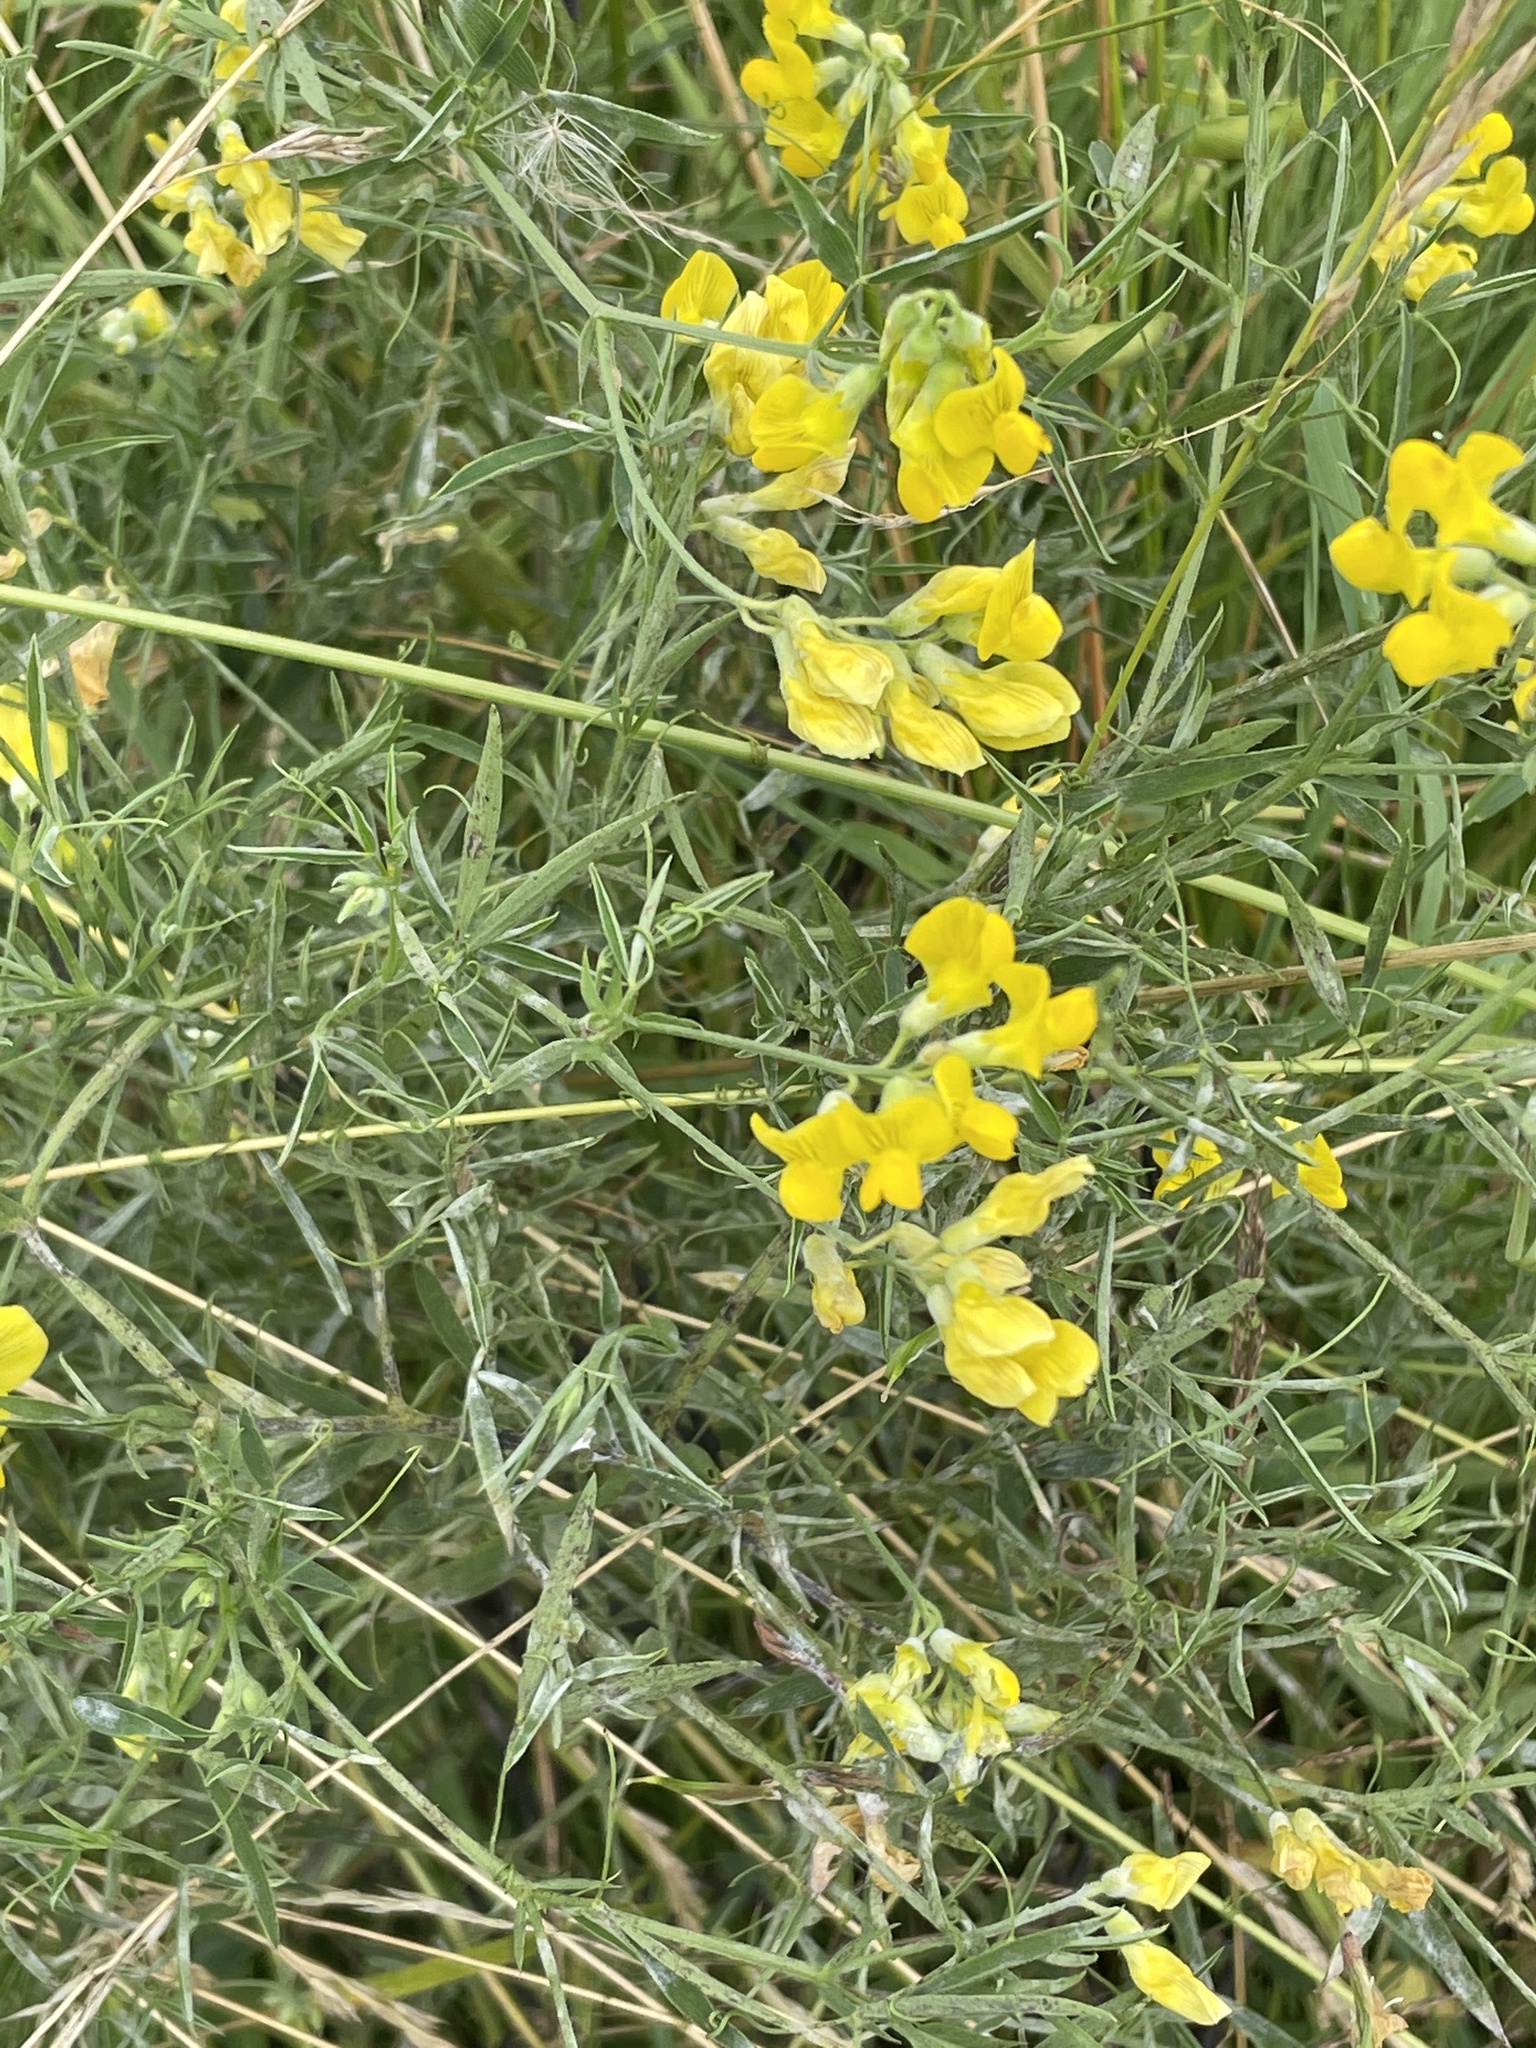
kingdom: Plantae
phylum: Tracheophyta
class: Magnoliopsida
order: Fabales
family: Fabaceae
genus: Lathyrus
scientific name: Lathyrus pratensis
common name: Meadow vetchling
